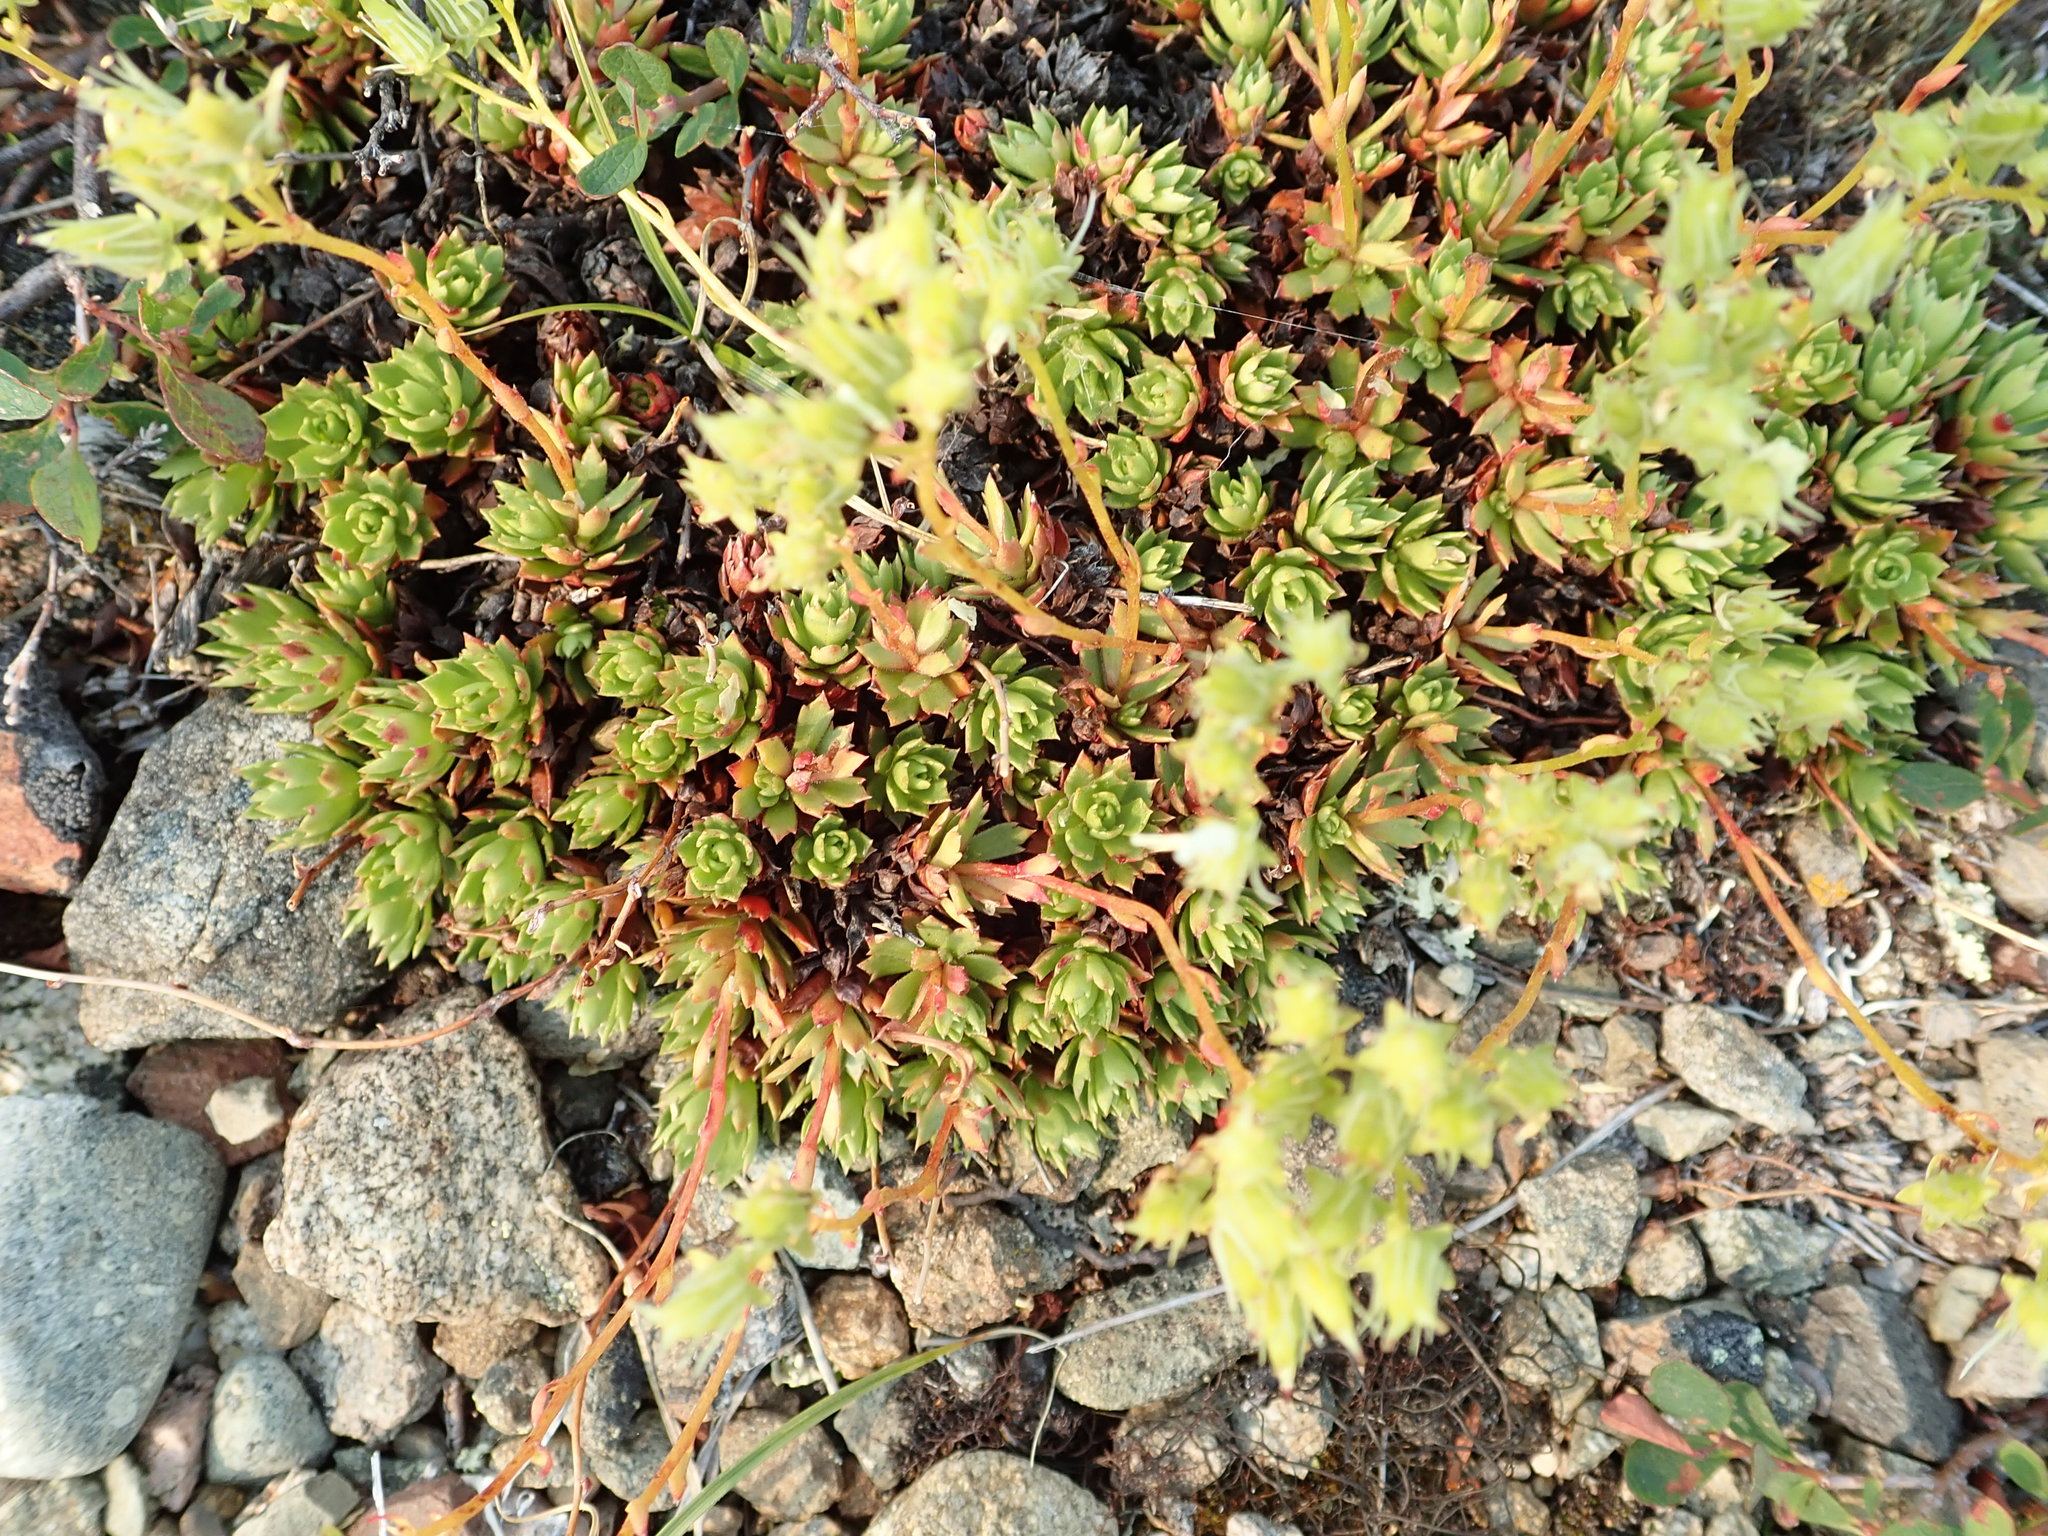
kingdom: Plantae
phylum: Tracheophyta
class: Magnoliopsida
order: Saxifragales
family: Saxifragaceae
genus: Saxifraga
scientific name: Saxifraga tricuspidata
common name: Prickly saxifrage
